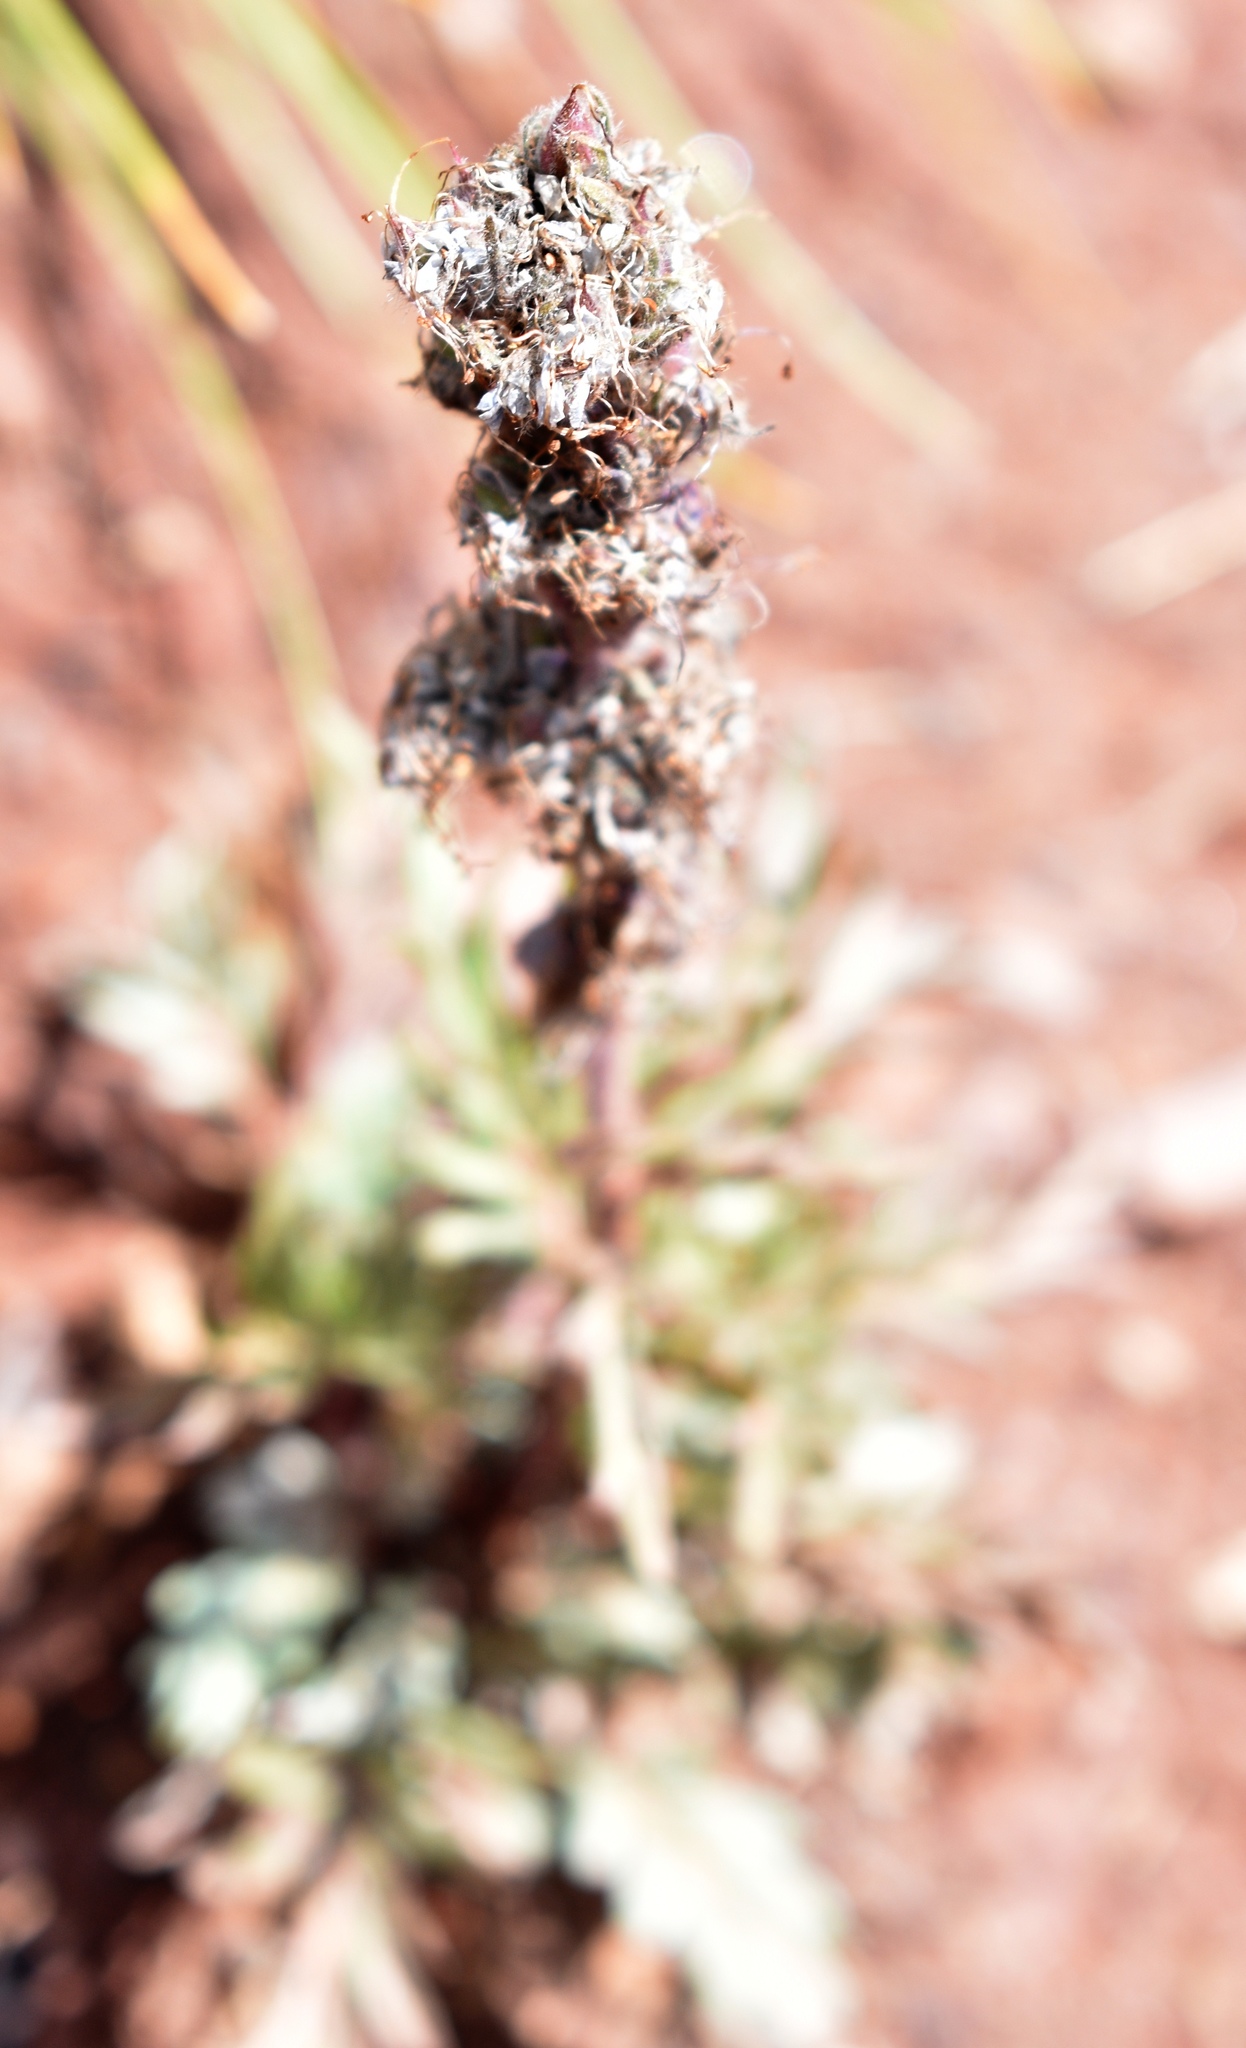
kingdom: Plantae
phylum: Tracheophyta
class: Magnoliopsida
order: Boraginales
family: Hydrophyllaceae
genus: Phacelia
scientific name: Phacelia sericea
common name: Silky phacelia
